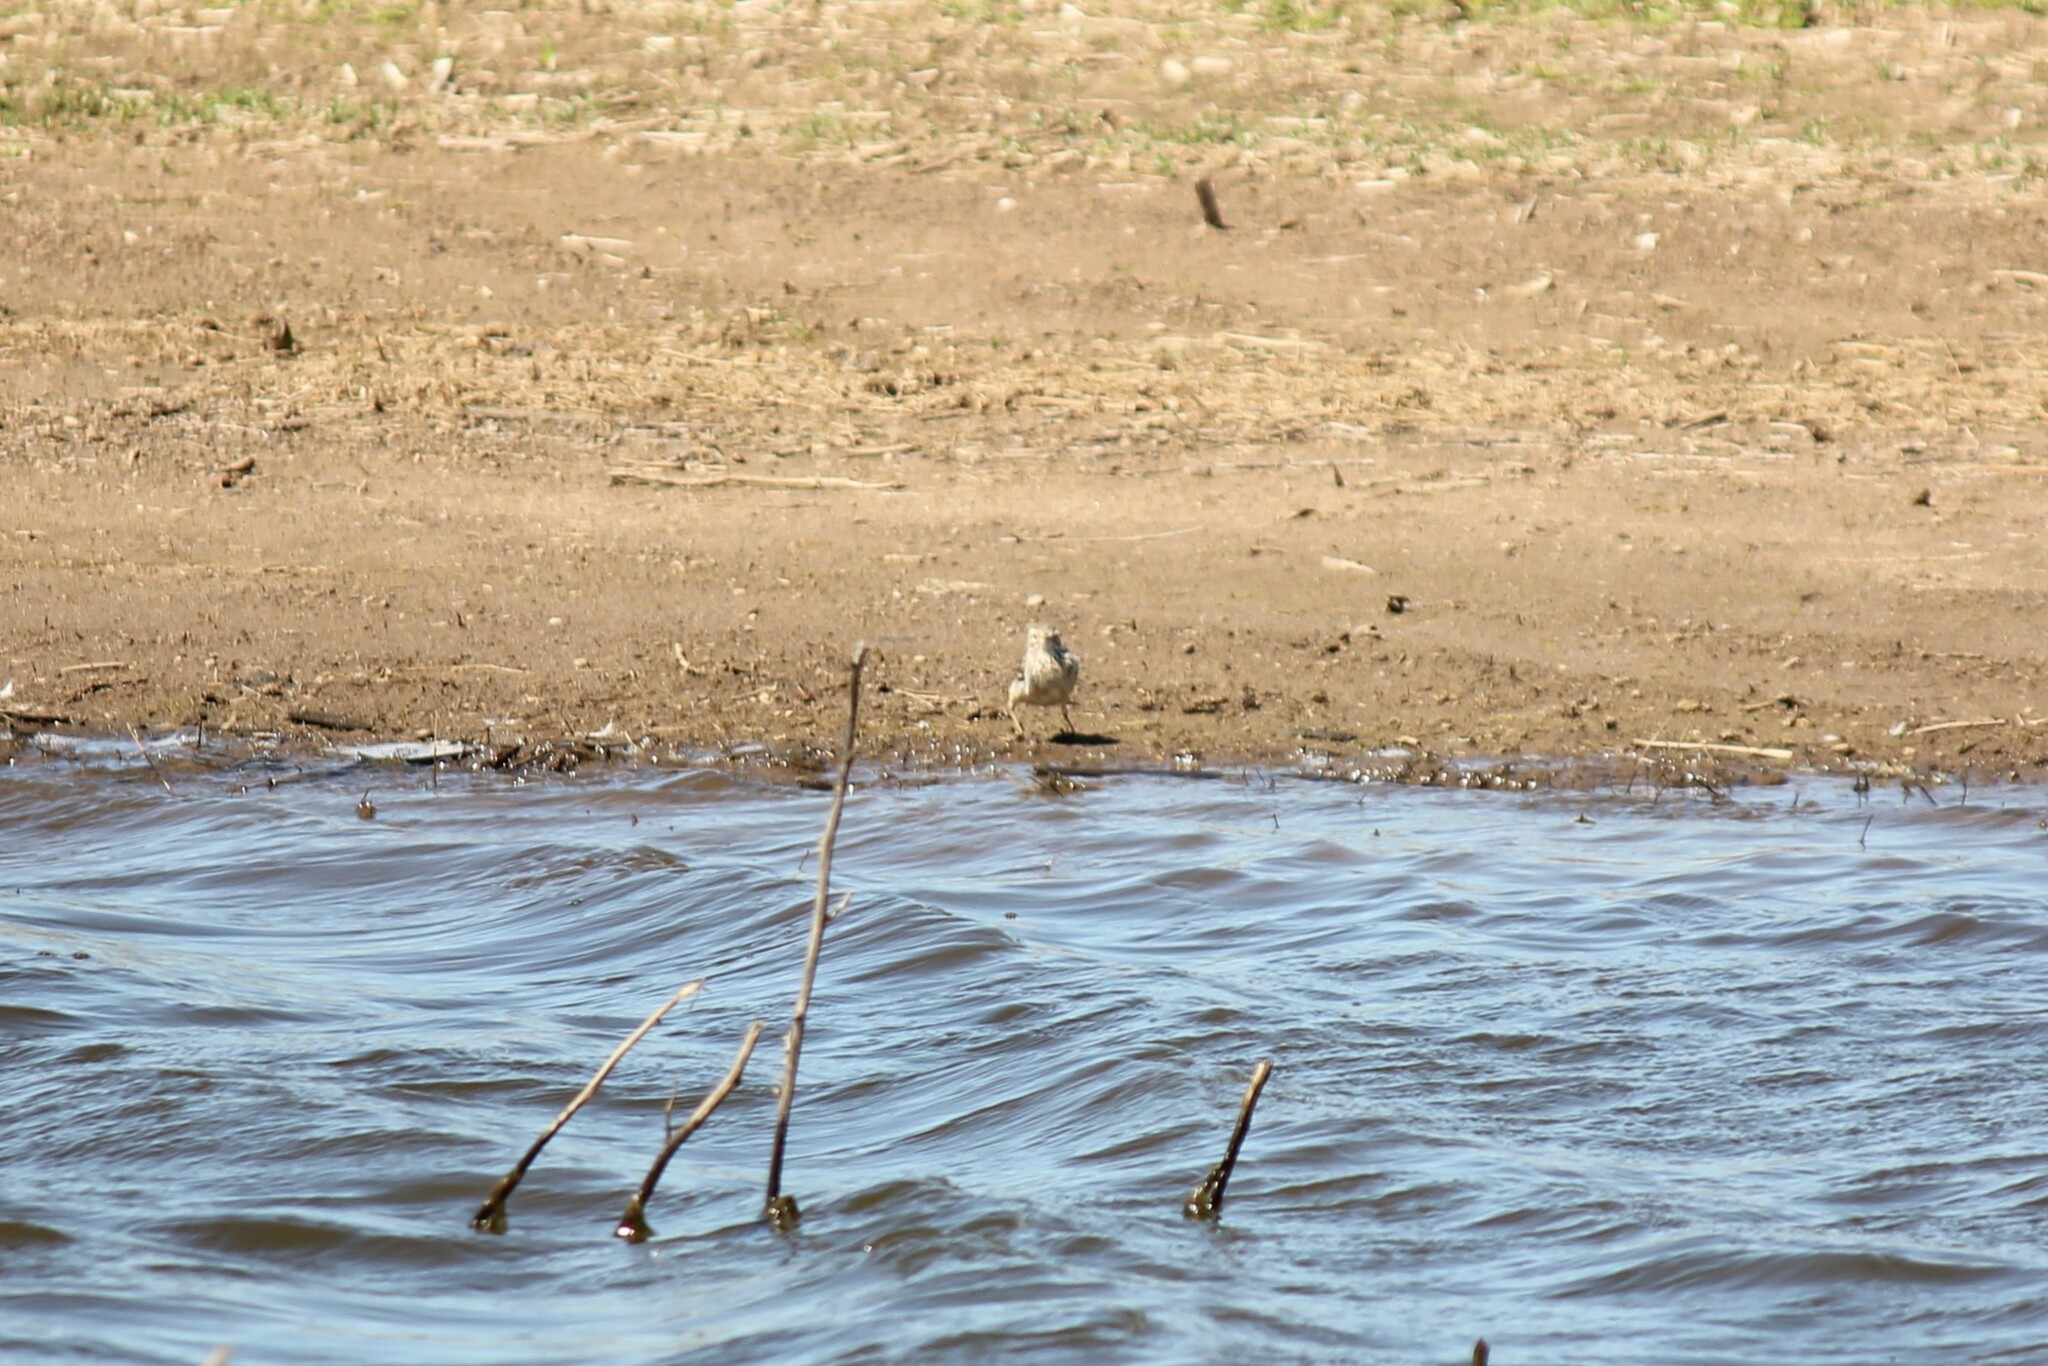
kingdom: Animalia
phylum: Chordata
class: Aves
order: Passeriformes
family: Motacillidae
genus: Anthus
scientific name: Anthus rubescens
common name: Buff-bellied pipit
